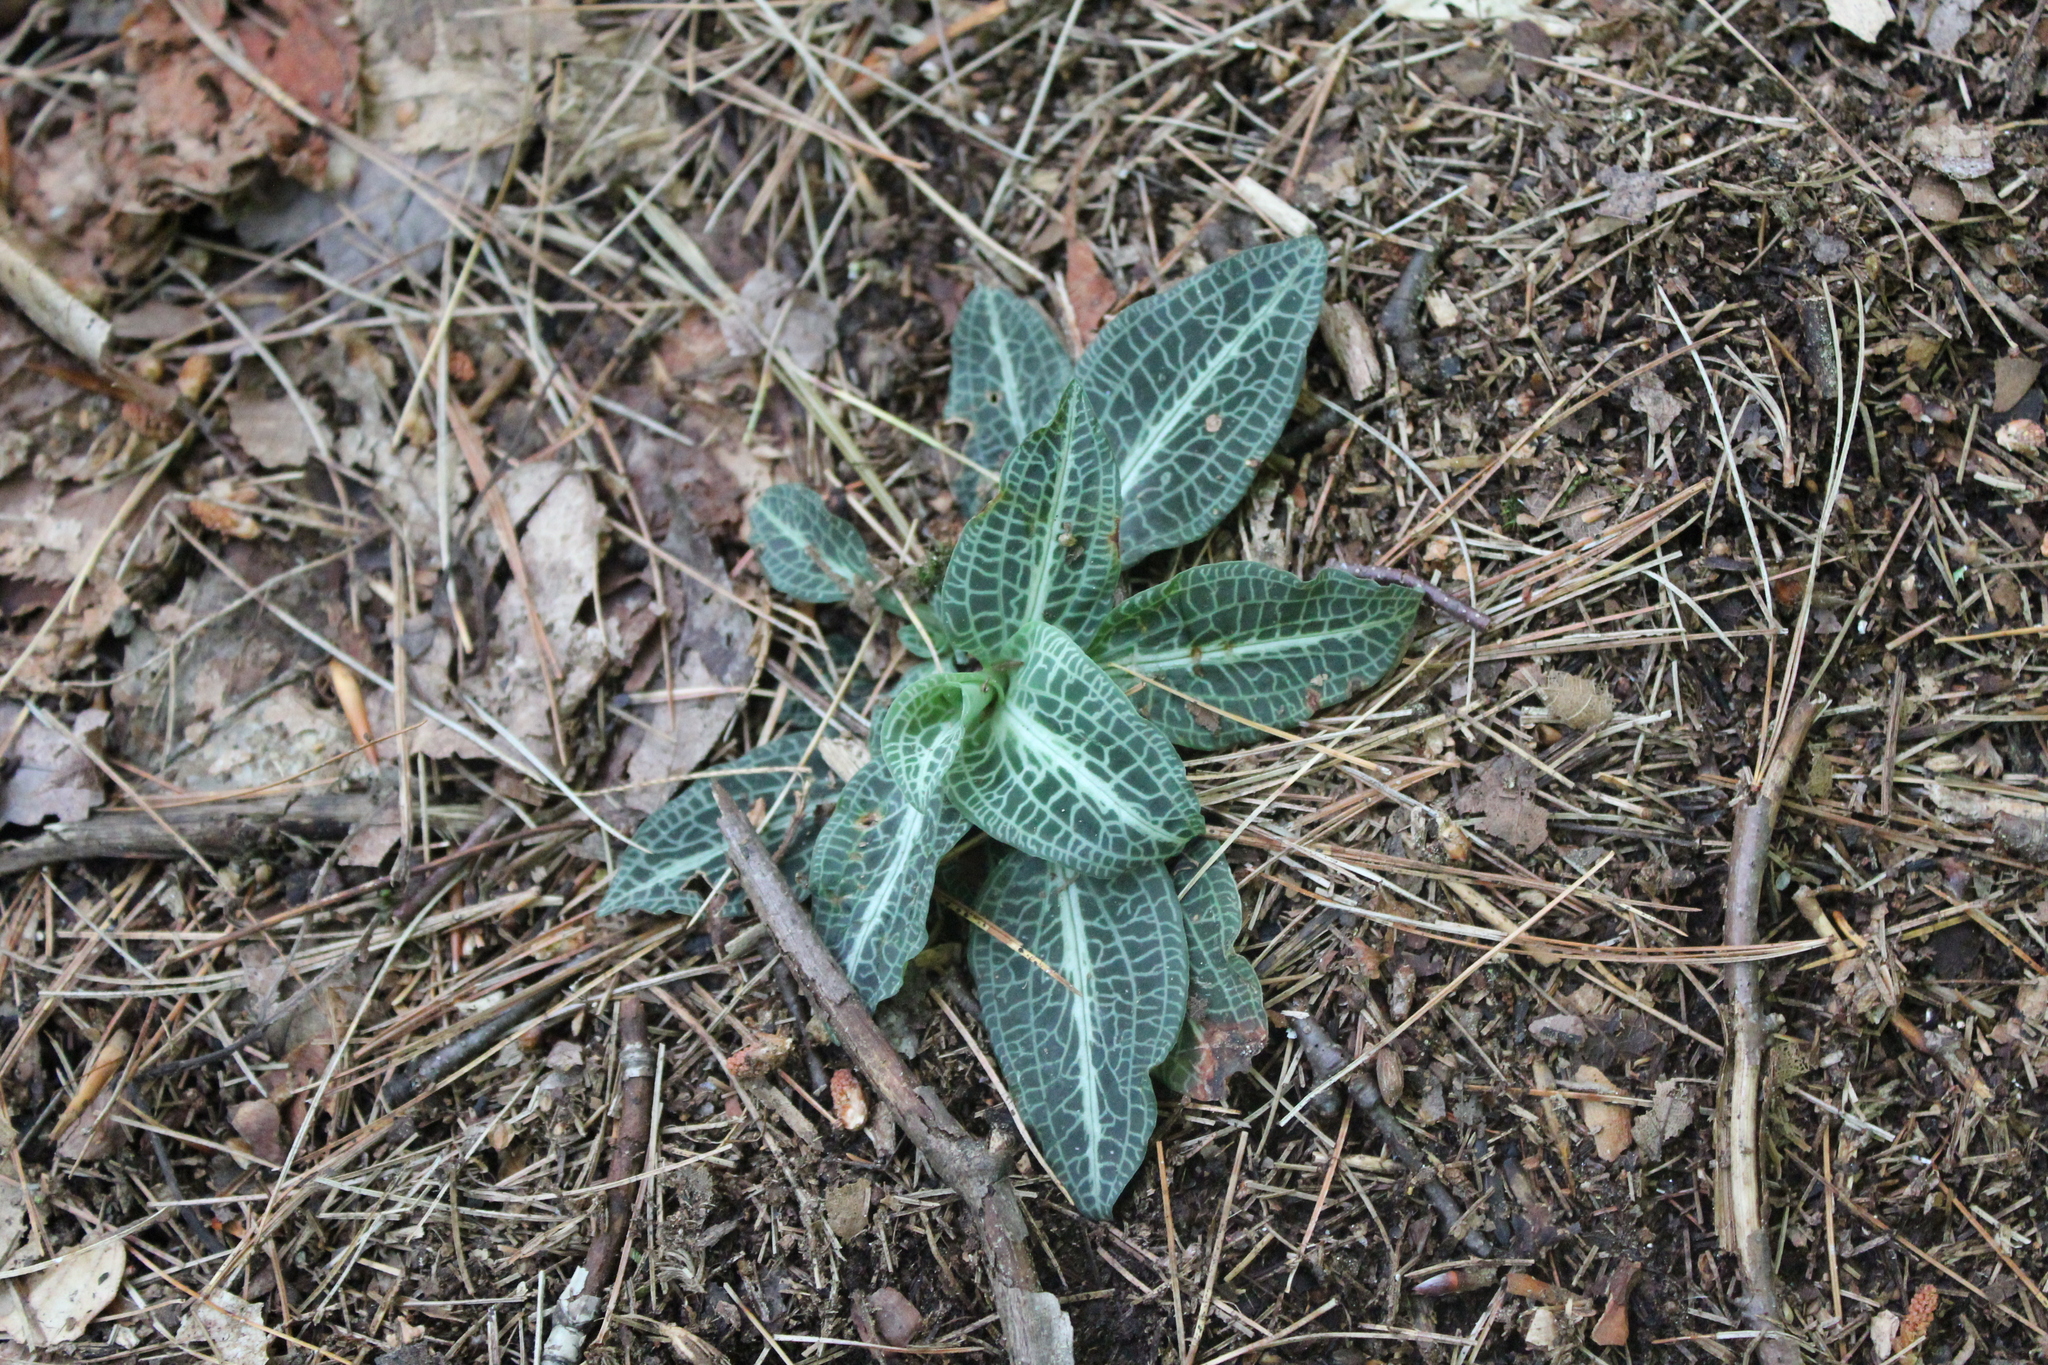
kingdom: Plantae
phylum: Tracheophyta
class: Liliopsida
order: Asparagales
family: Orchidaceae
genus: Goodyera
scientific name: Goodyera pubescens
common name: Downy rattlesnake-plantain
